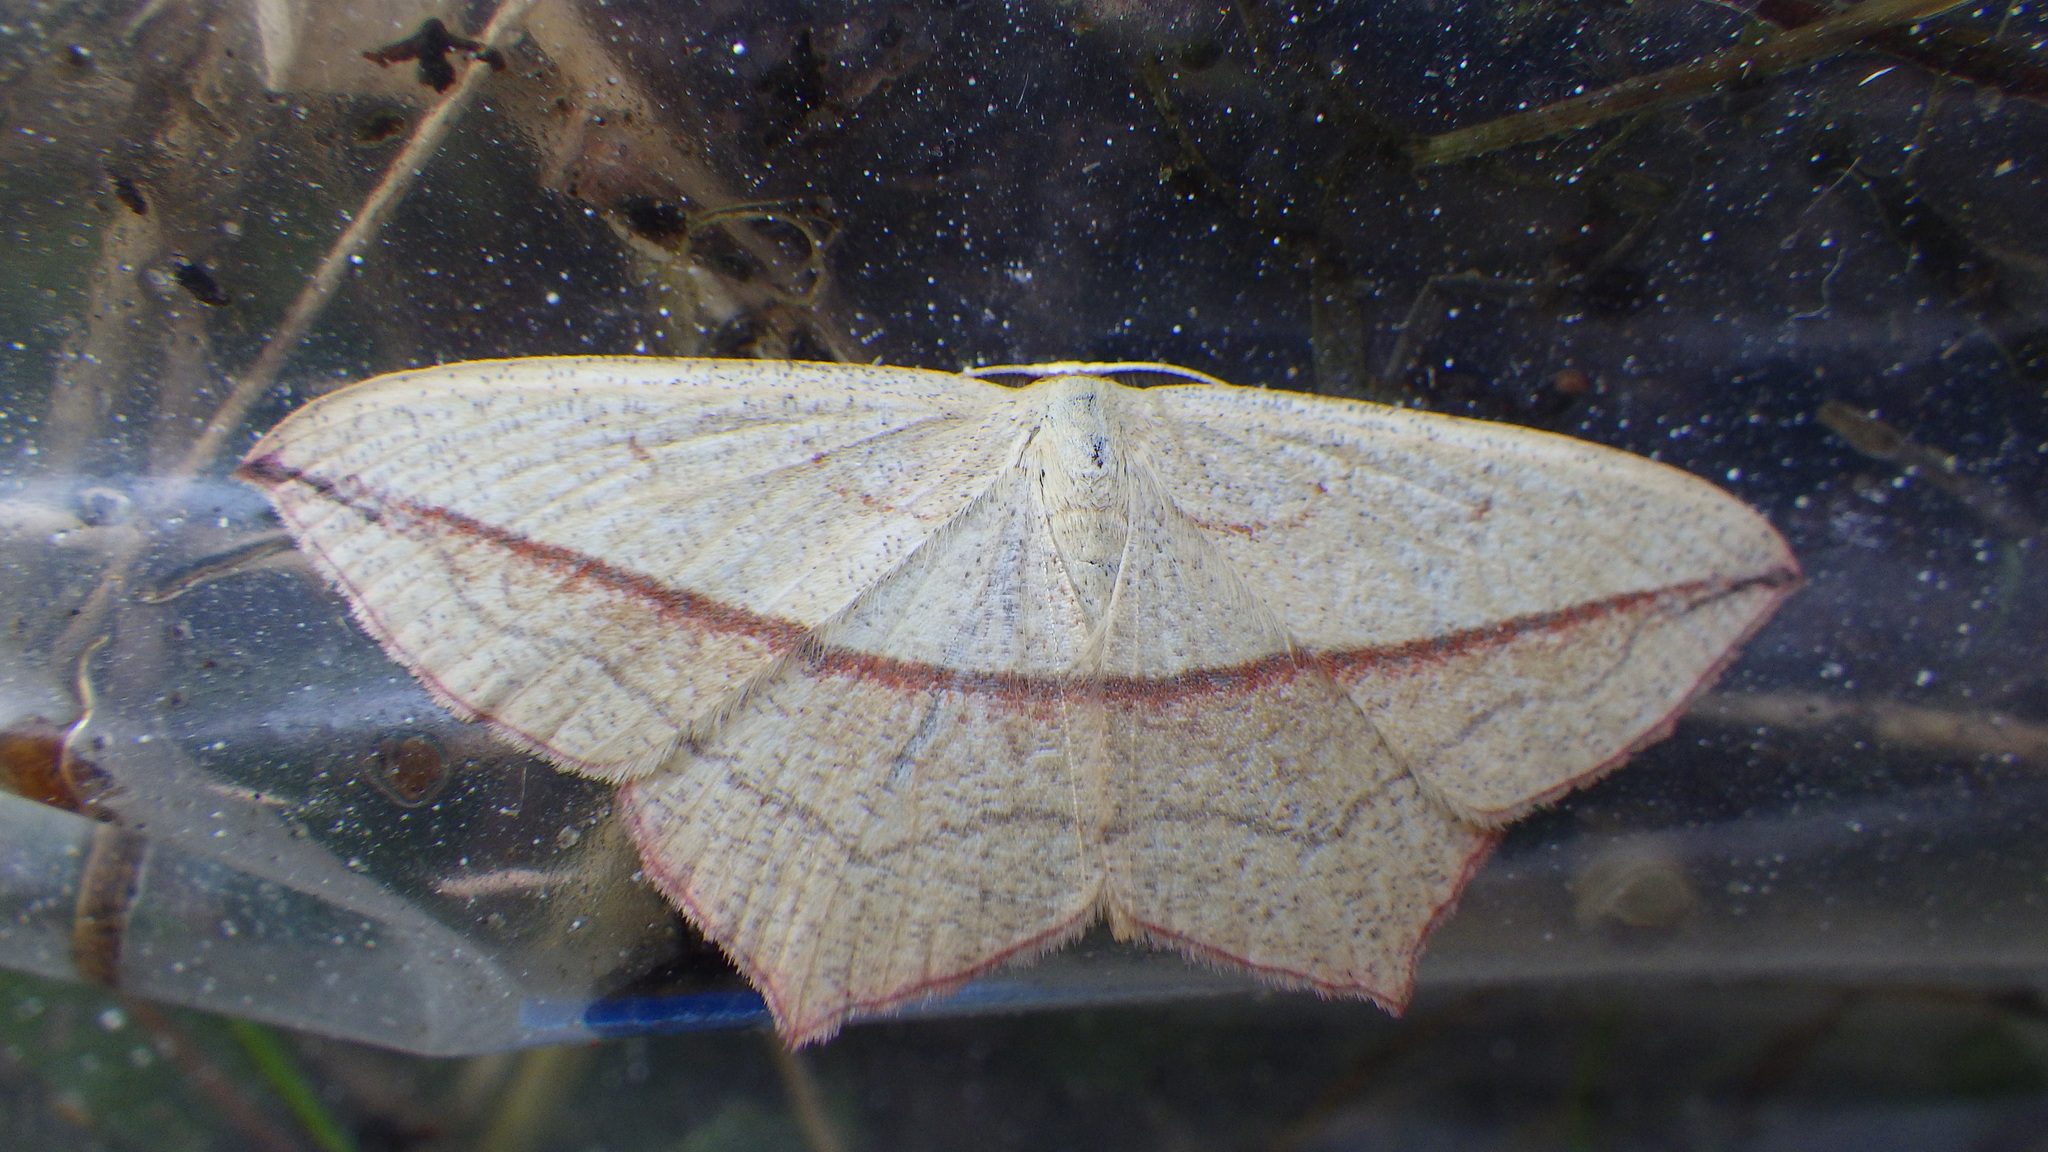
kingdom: Animalia
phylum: Arthropoda
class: Insecta
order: Lepidoptera
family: Geometridae
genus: Timandra
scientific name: Timandra comae
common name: Blood-vein
